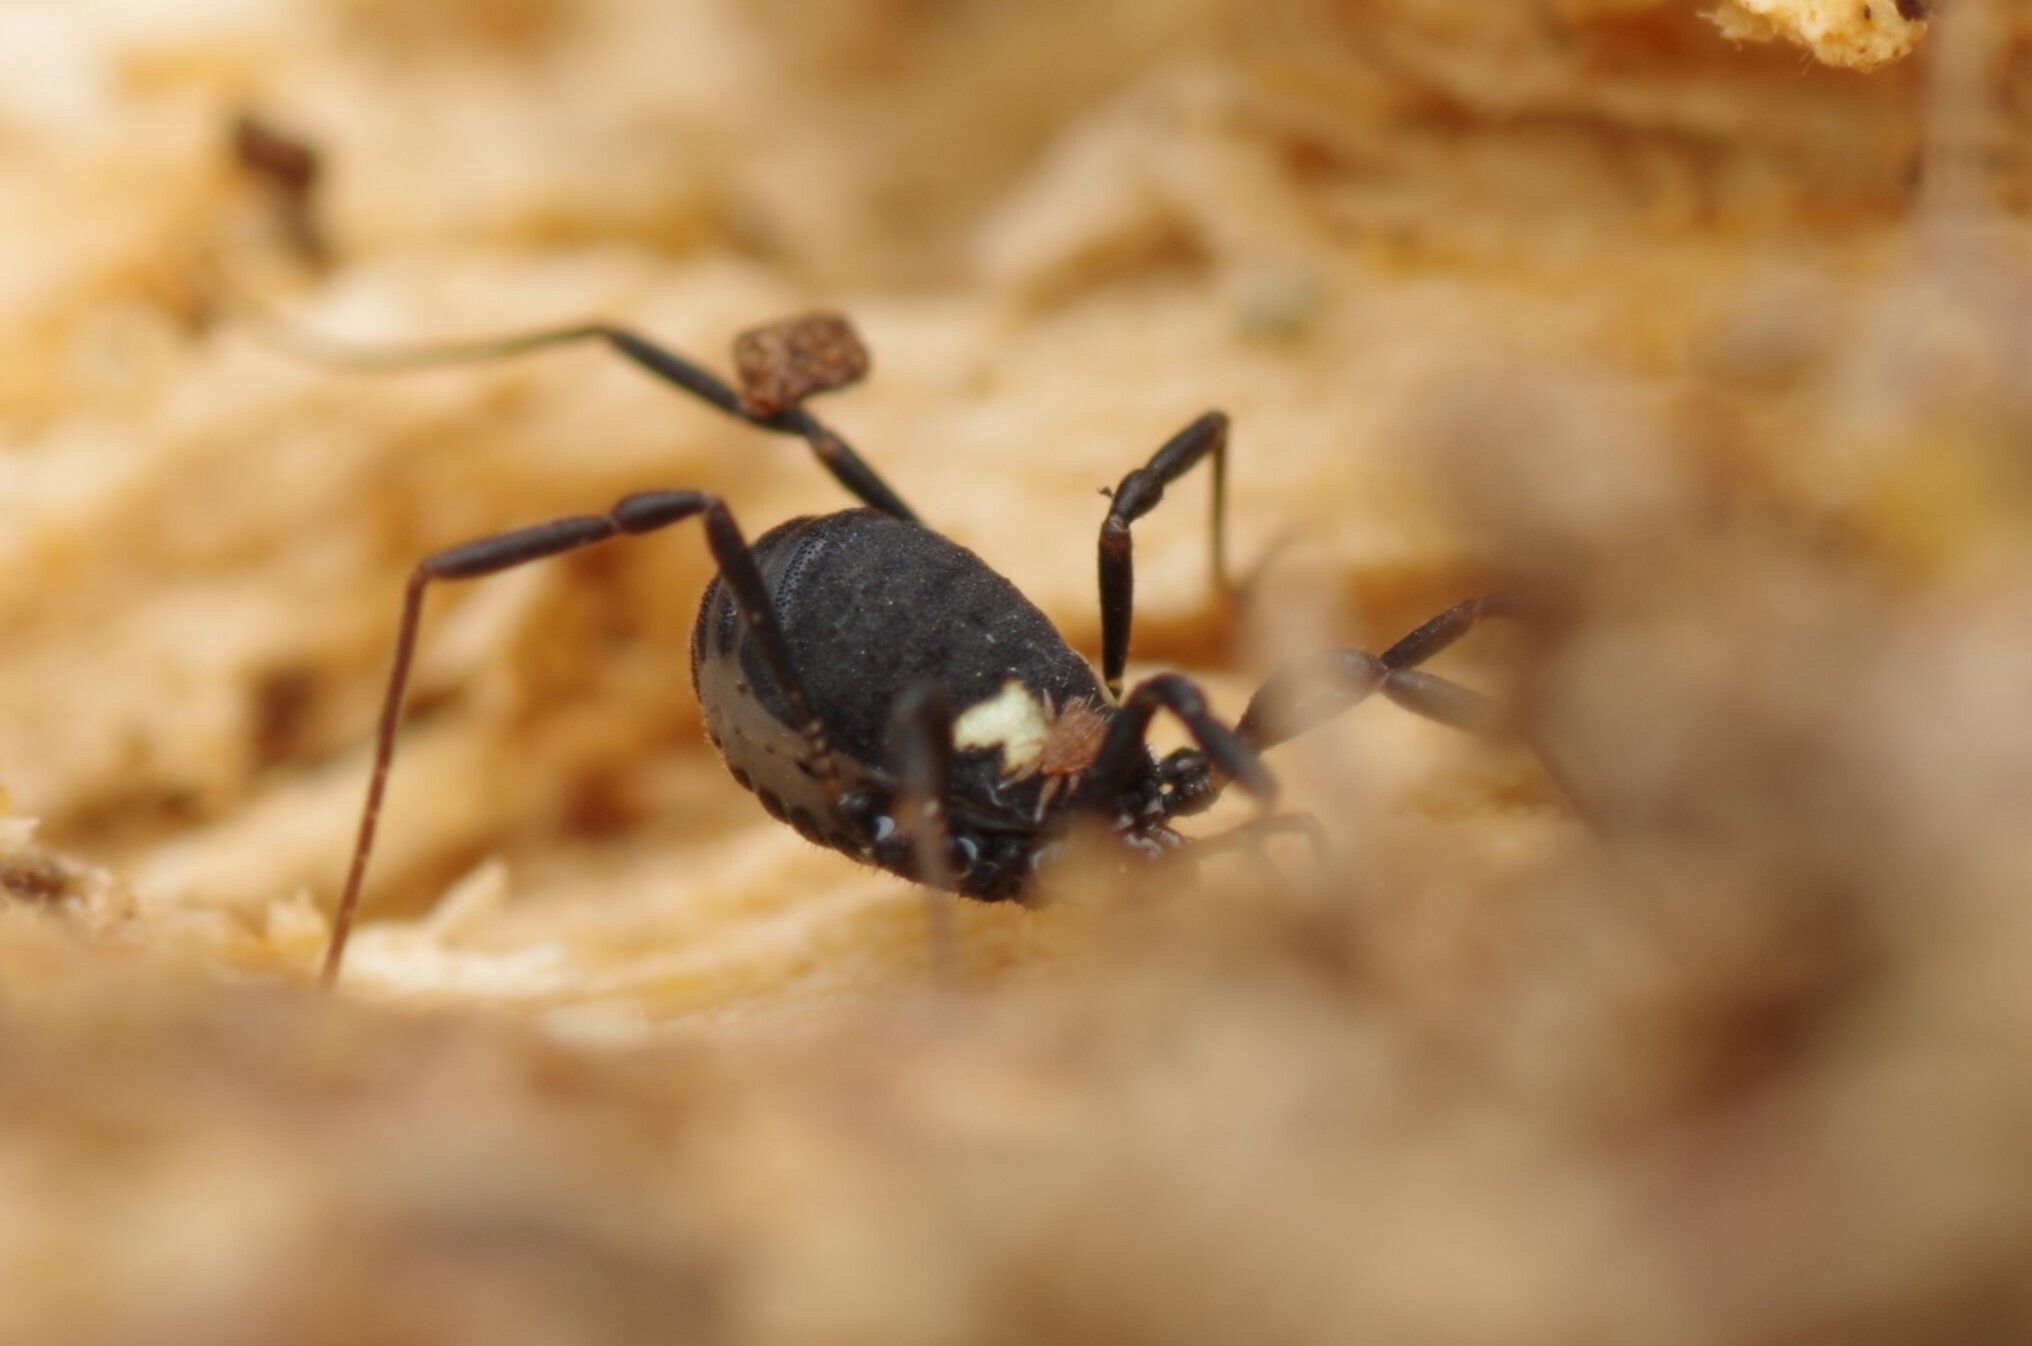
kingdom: Animalia
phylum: Arthropoda
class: Arachnida
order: Opiliones
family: Nemastomatidae
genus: Nemastoma
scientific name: Nemastoma bimaculatum
